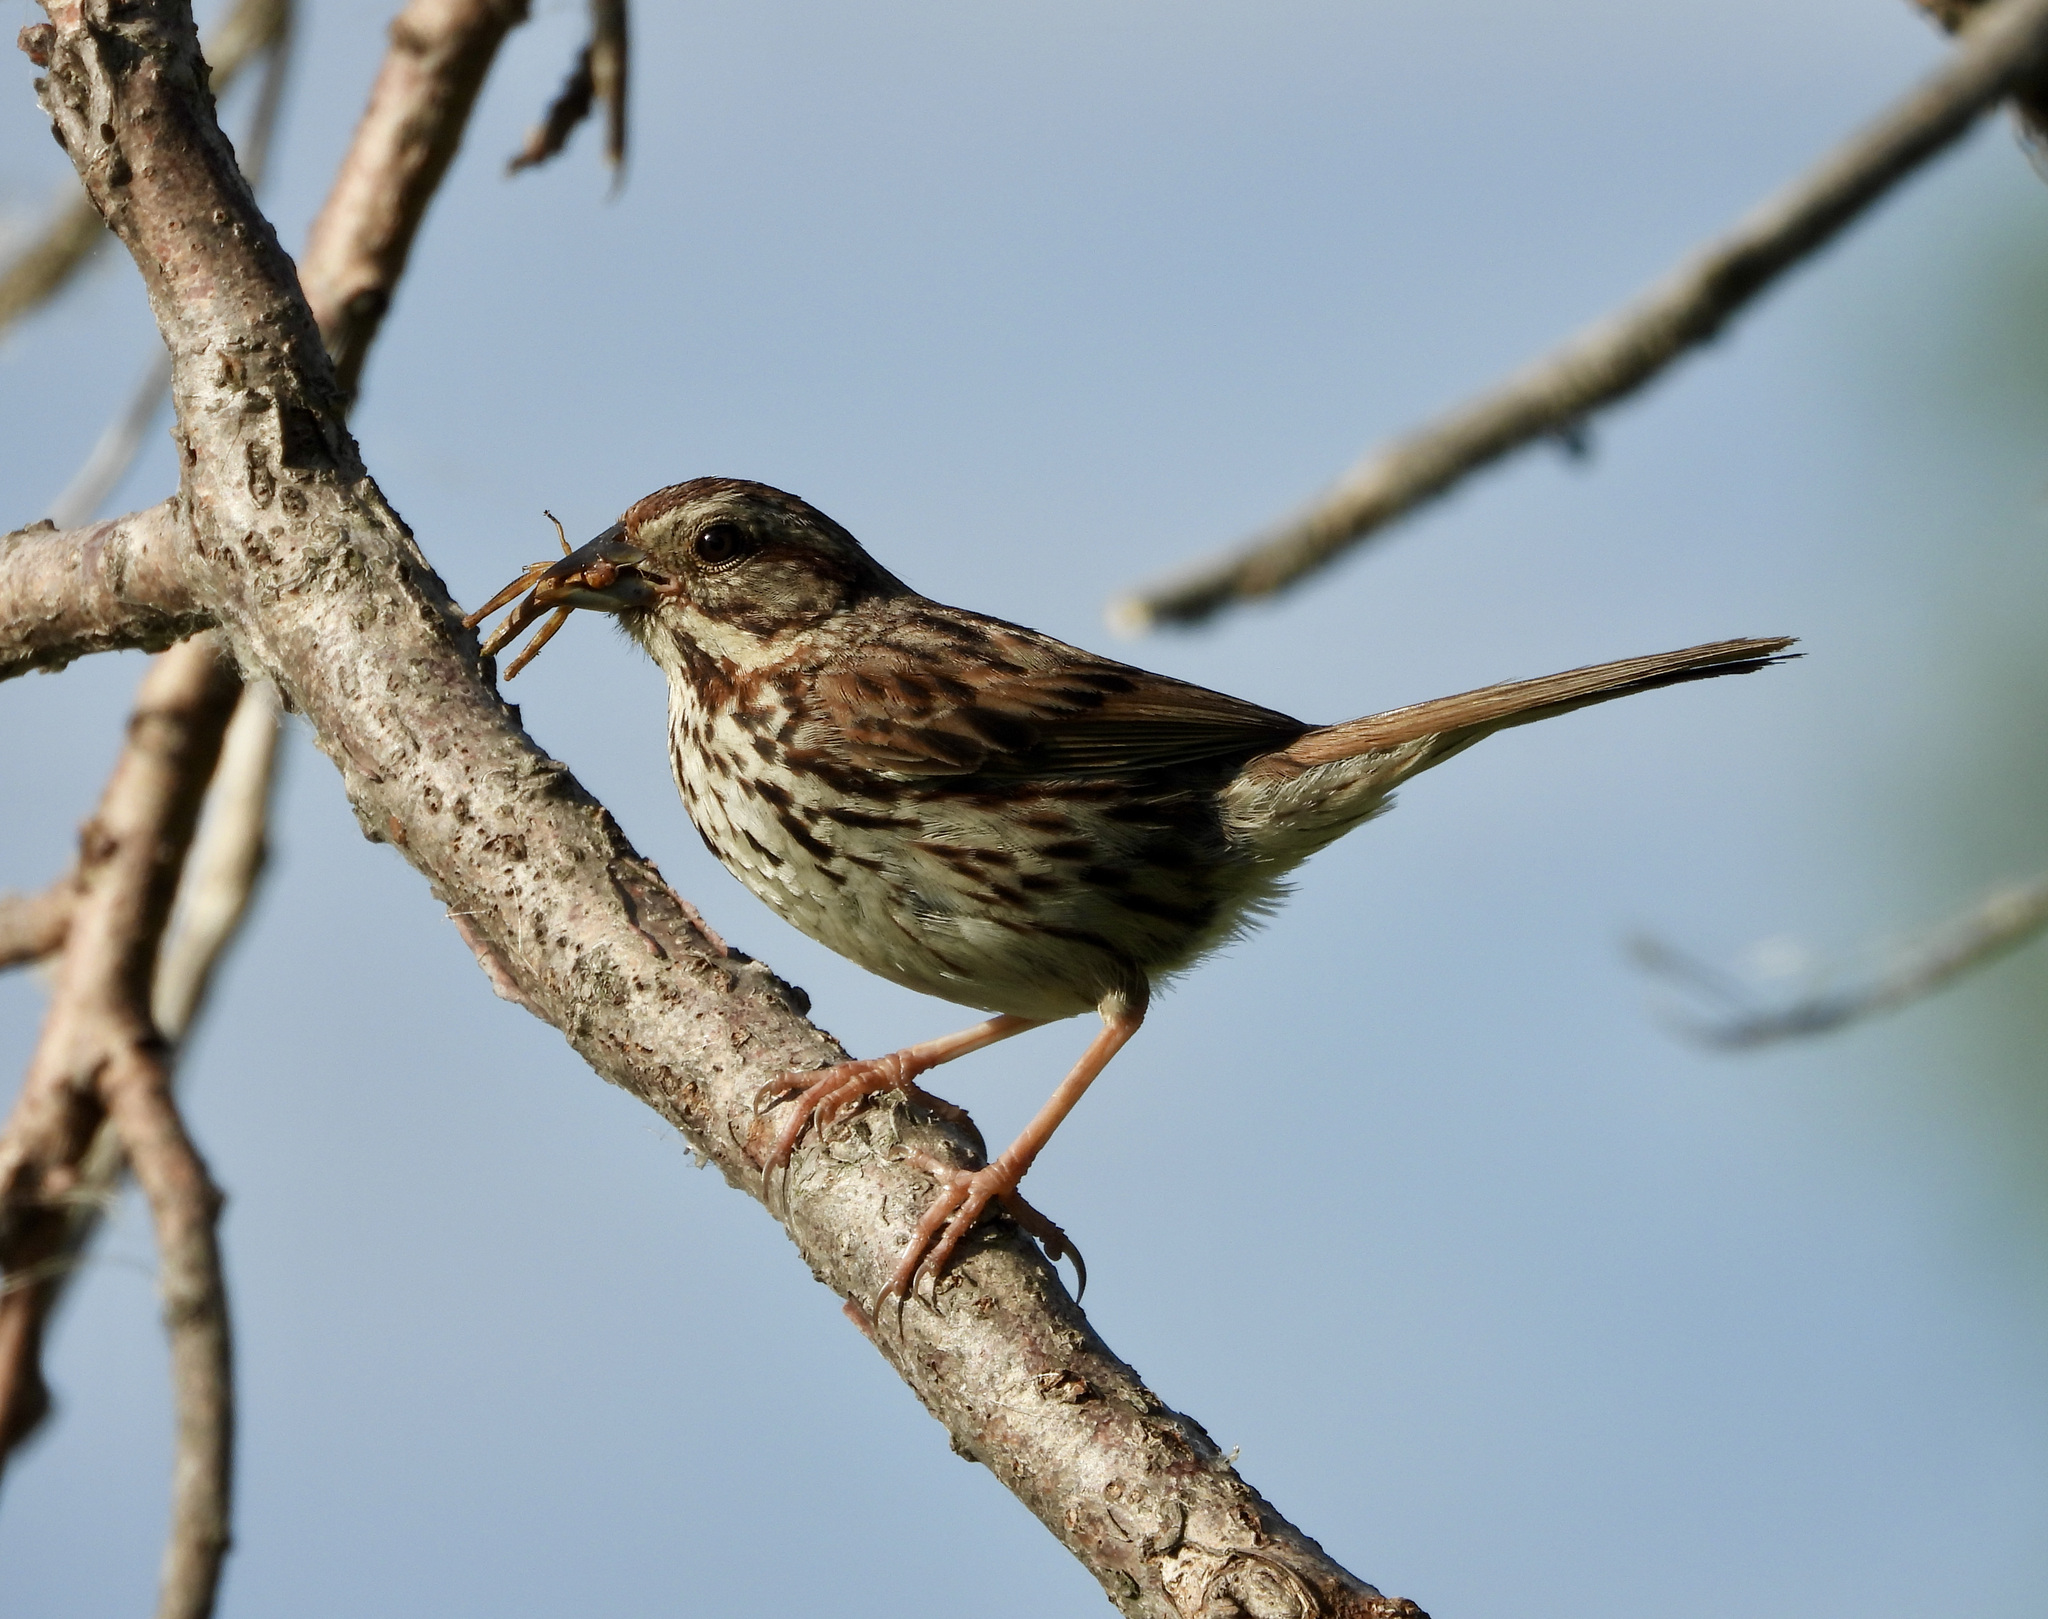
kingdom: Animalia
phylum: Chordata
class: Aves
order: Passeriformes
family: Passerellidae
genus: Melospiza
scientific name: Melospiza melodia
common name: Song sparrow
